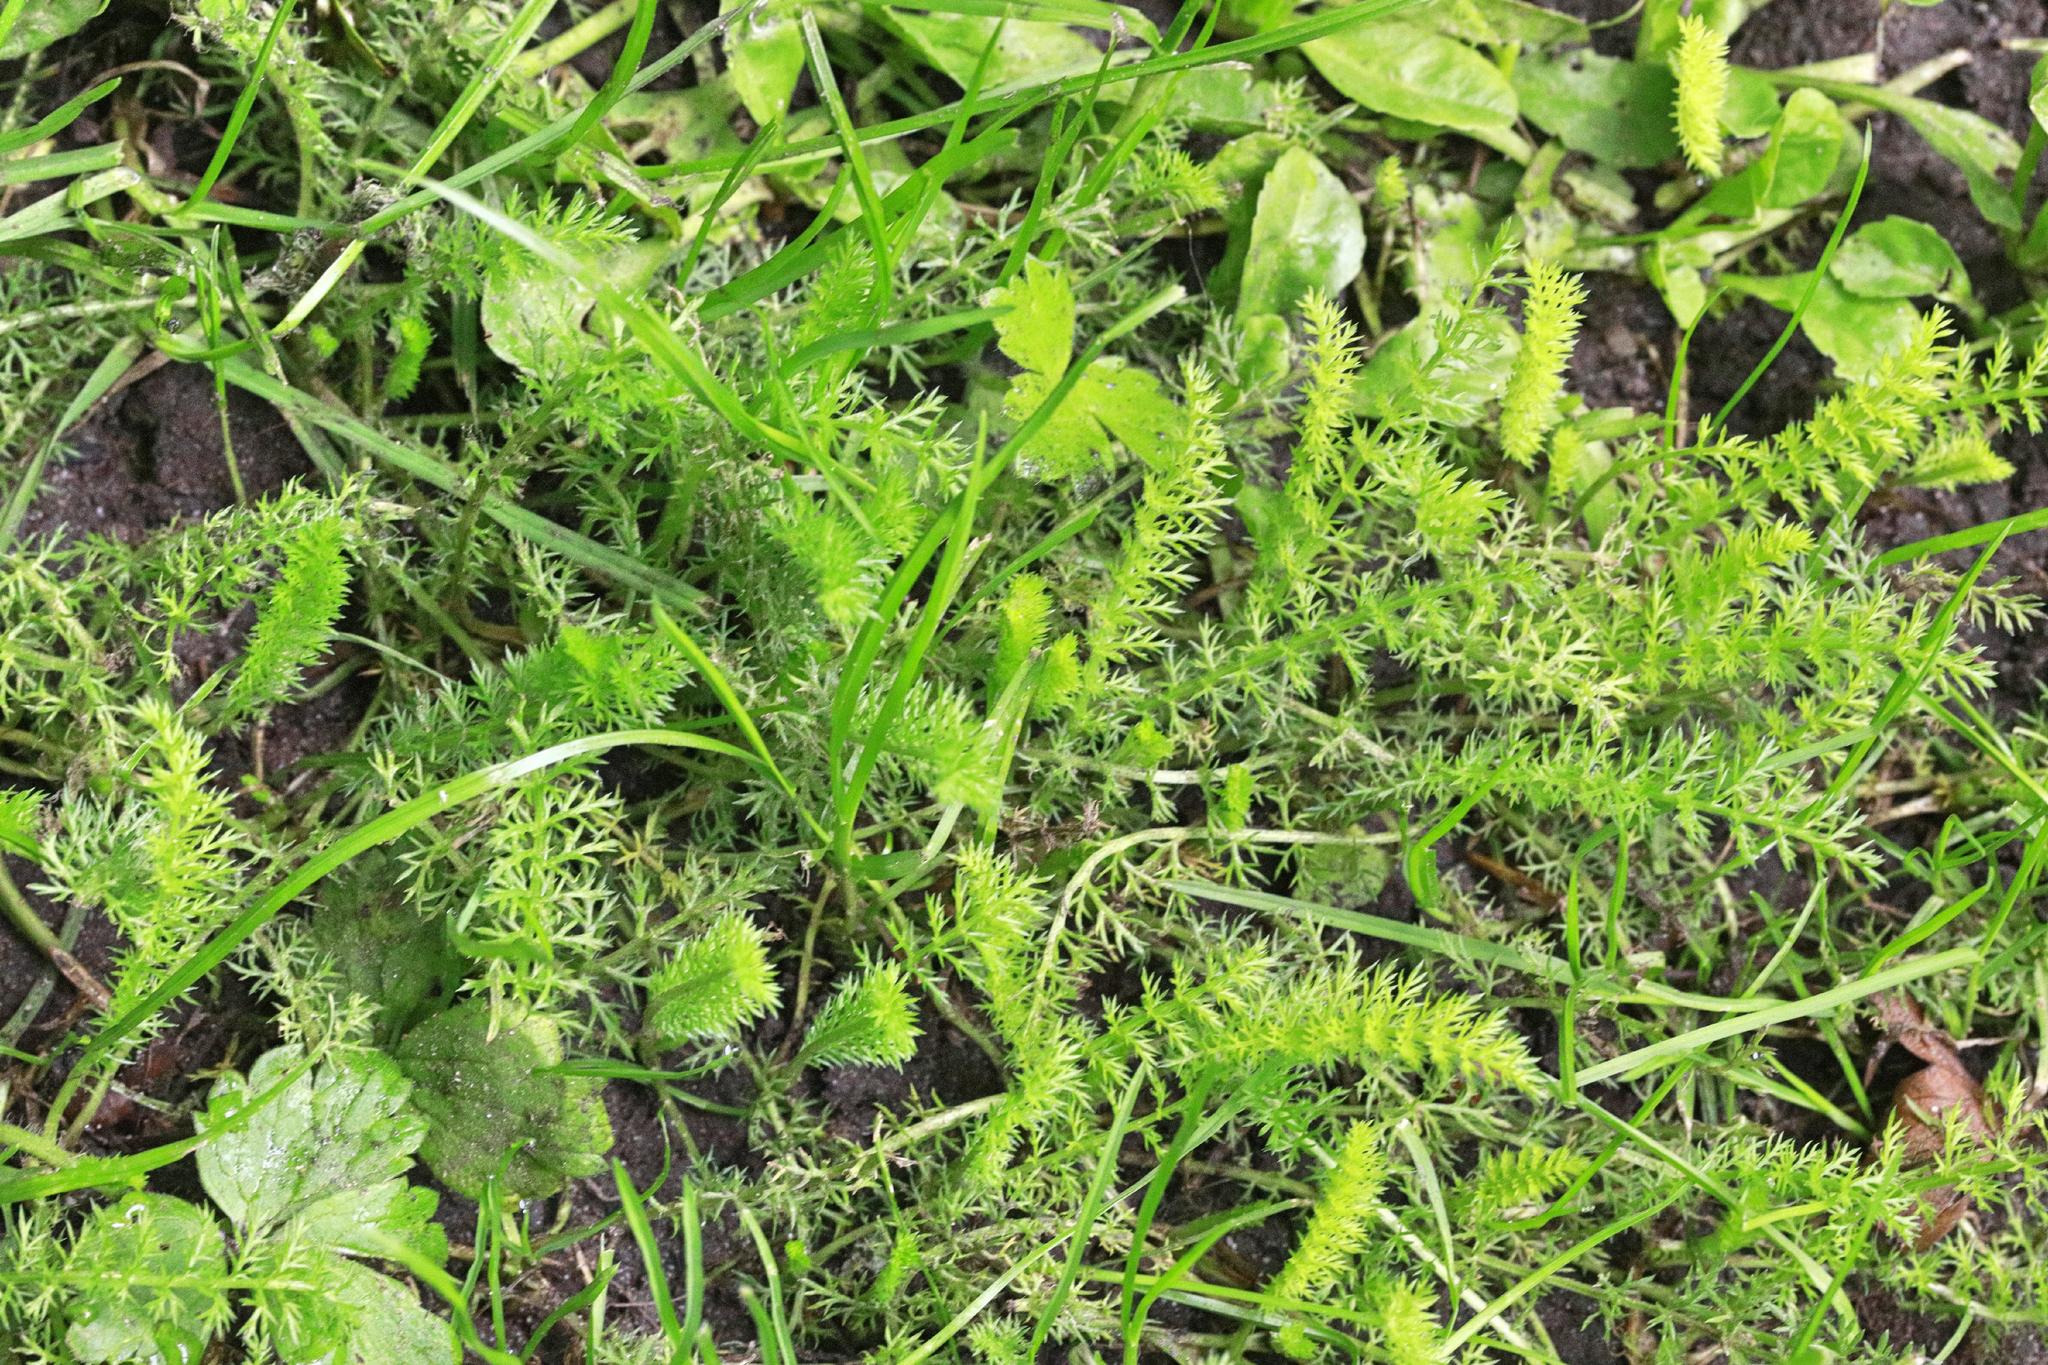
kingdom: Plantae
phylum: Tracheophyta
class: Magnoliopsida
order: Asterales
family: Asteraceae
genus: Achillea
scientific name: Achillea millefolium
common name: Yarrow
